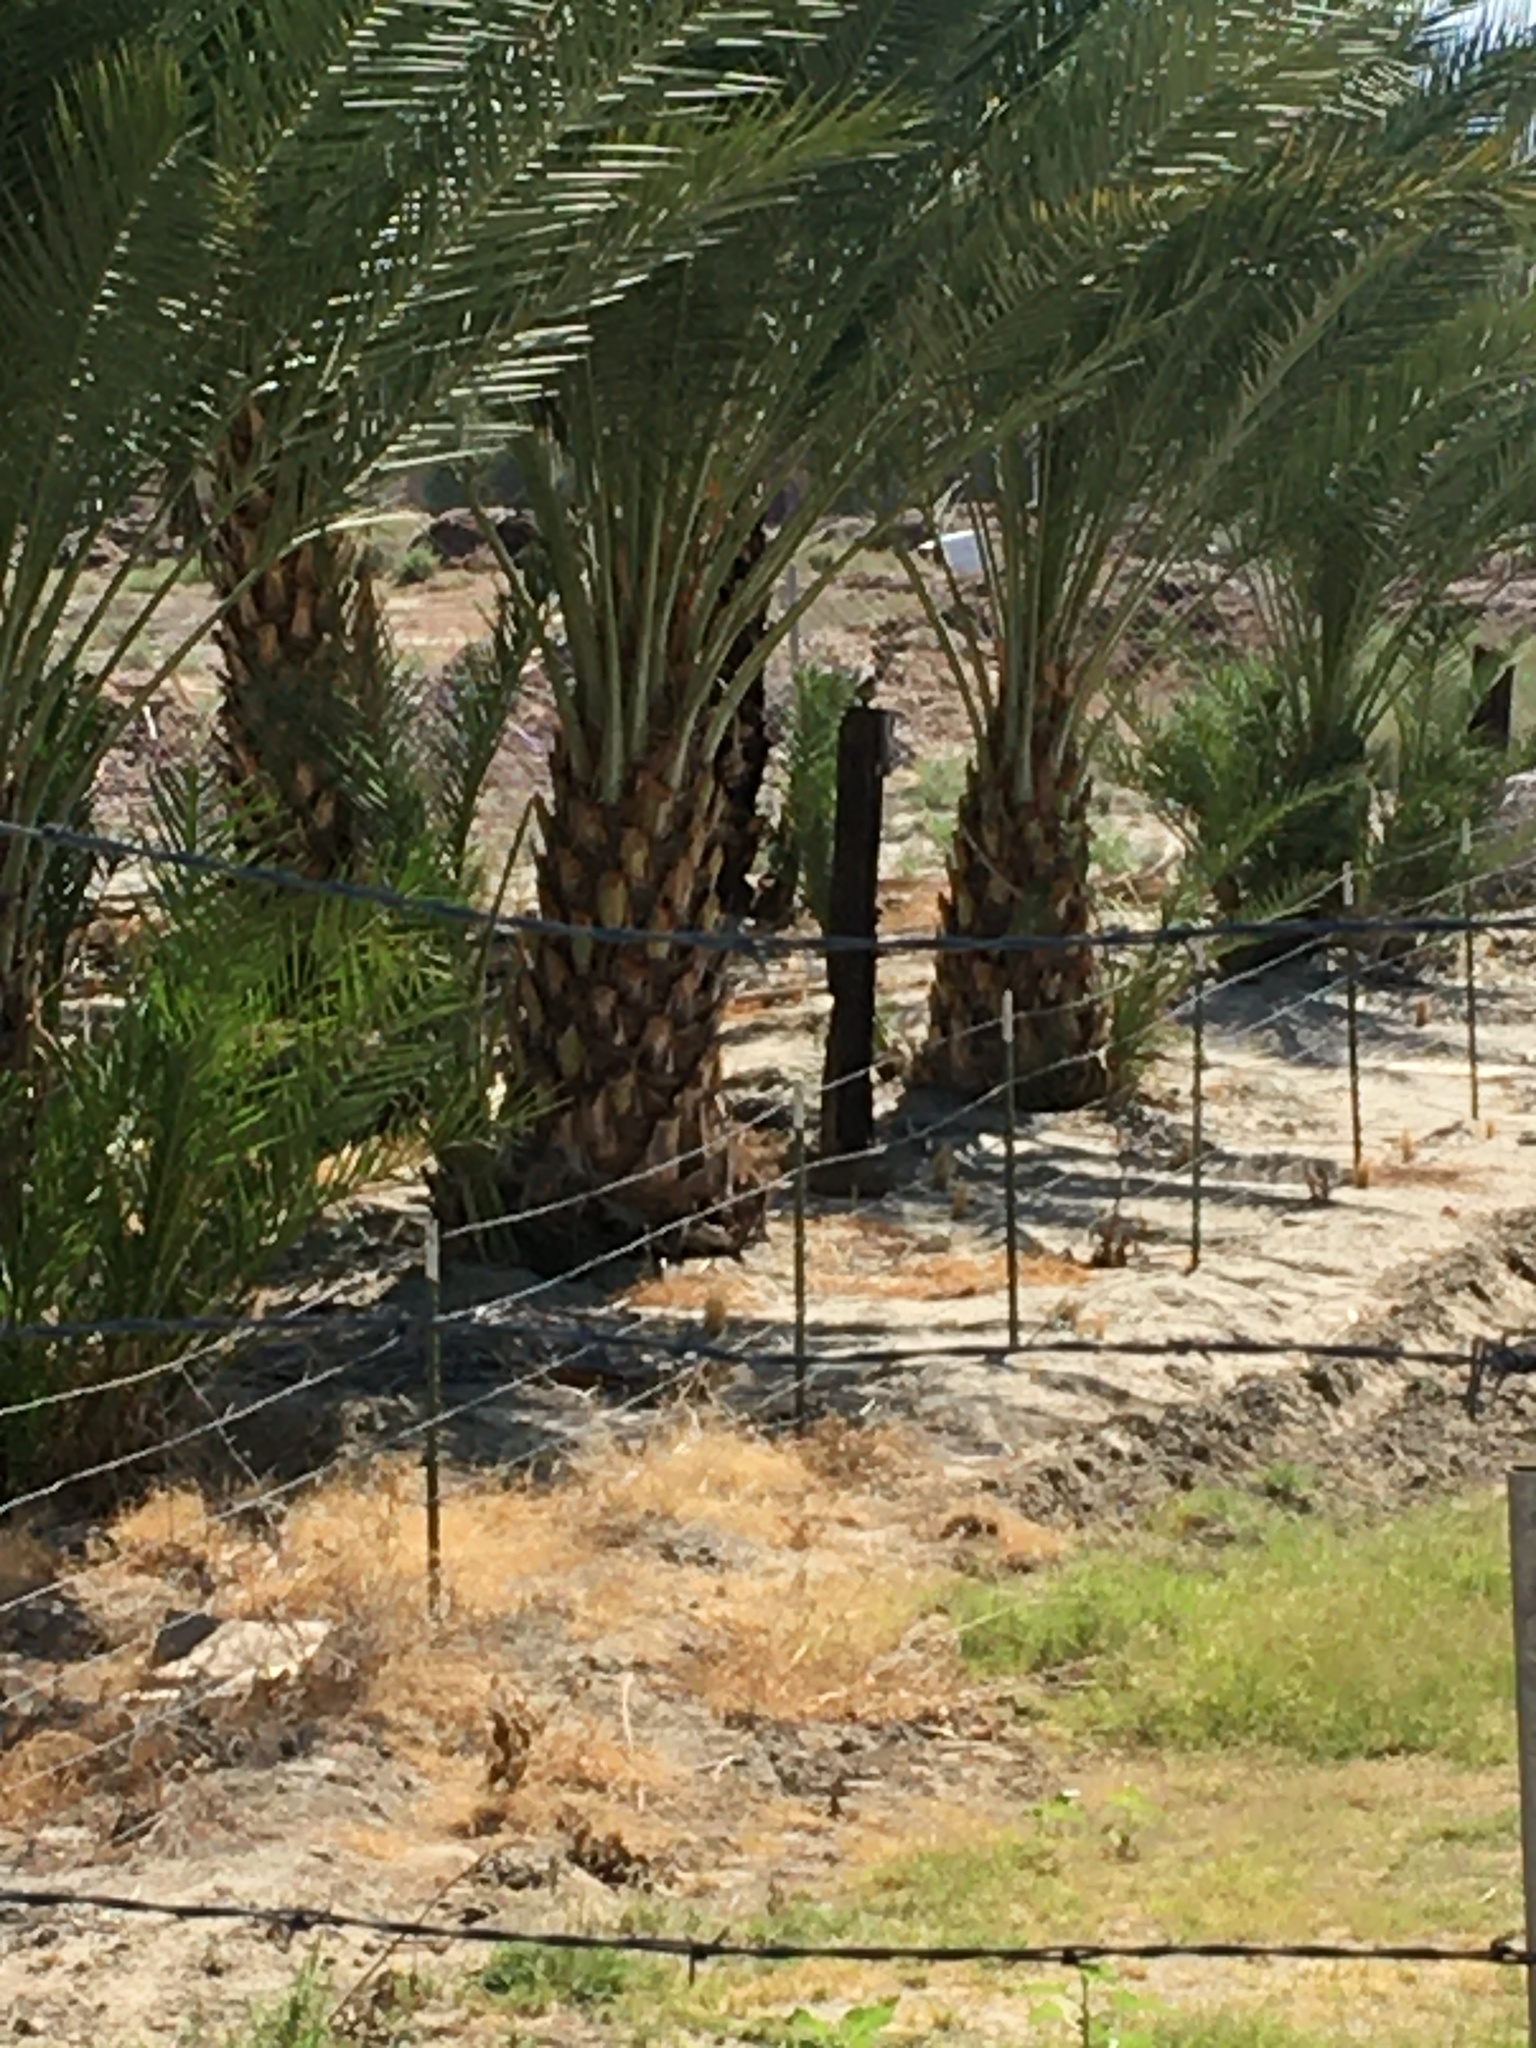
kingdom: Animalia
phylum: Chordata
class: Aves
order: Galliformes
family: Odontophoridae
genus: Callipepla
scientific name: Callipepla gambelii
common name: Gambel's quail
